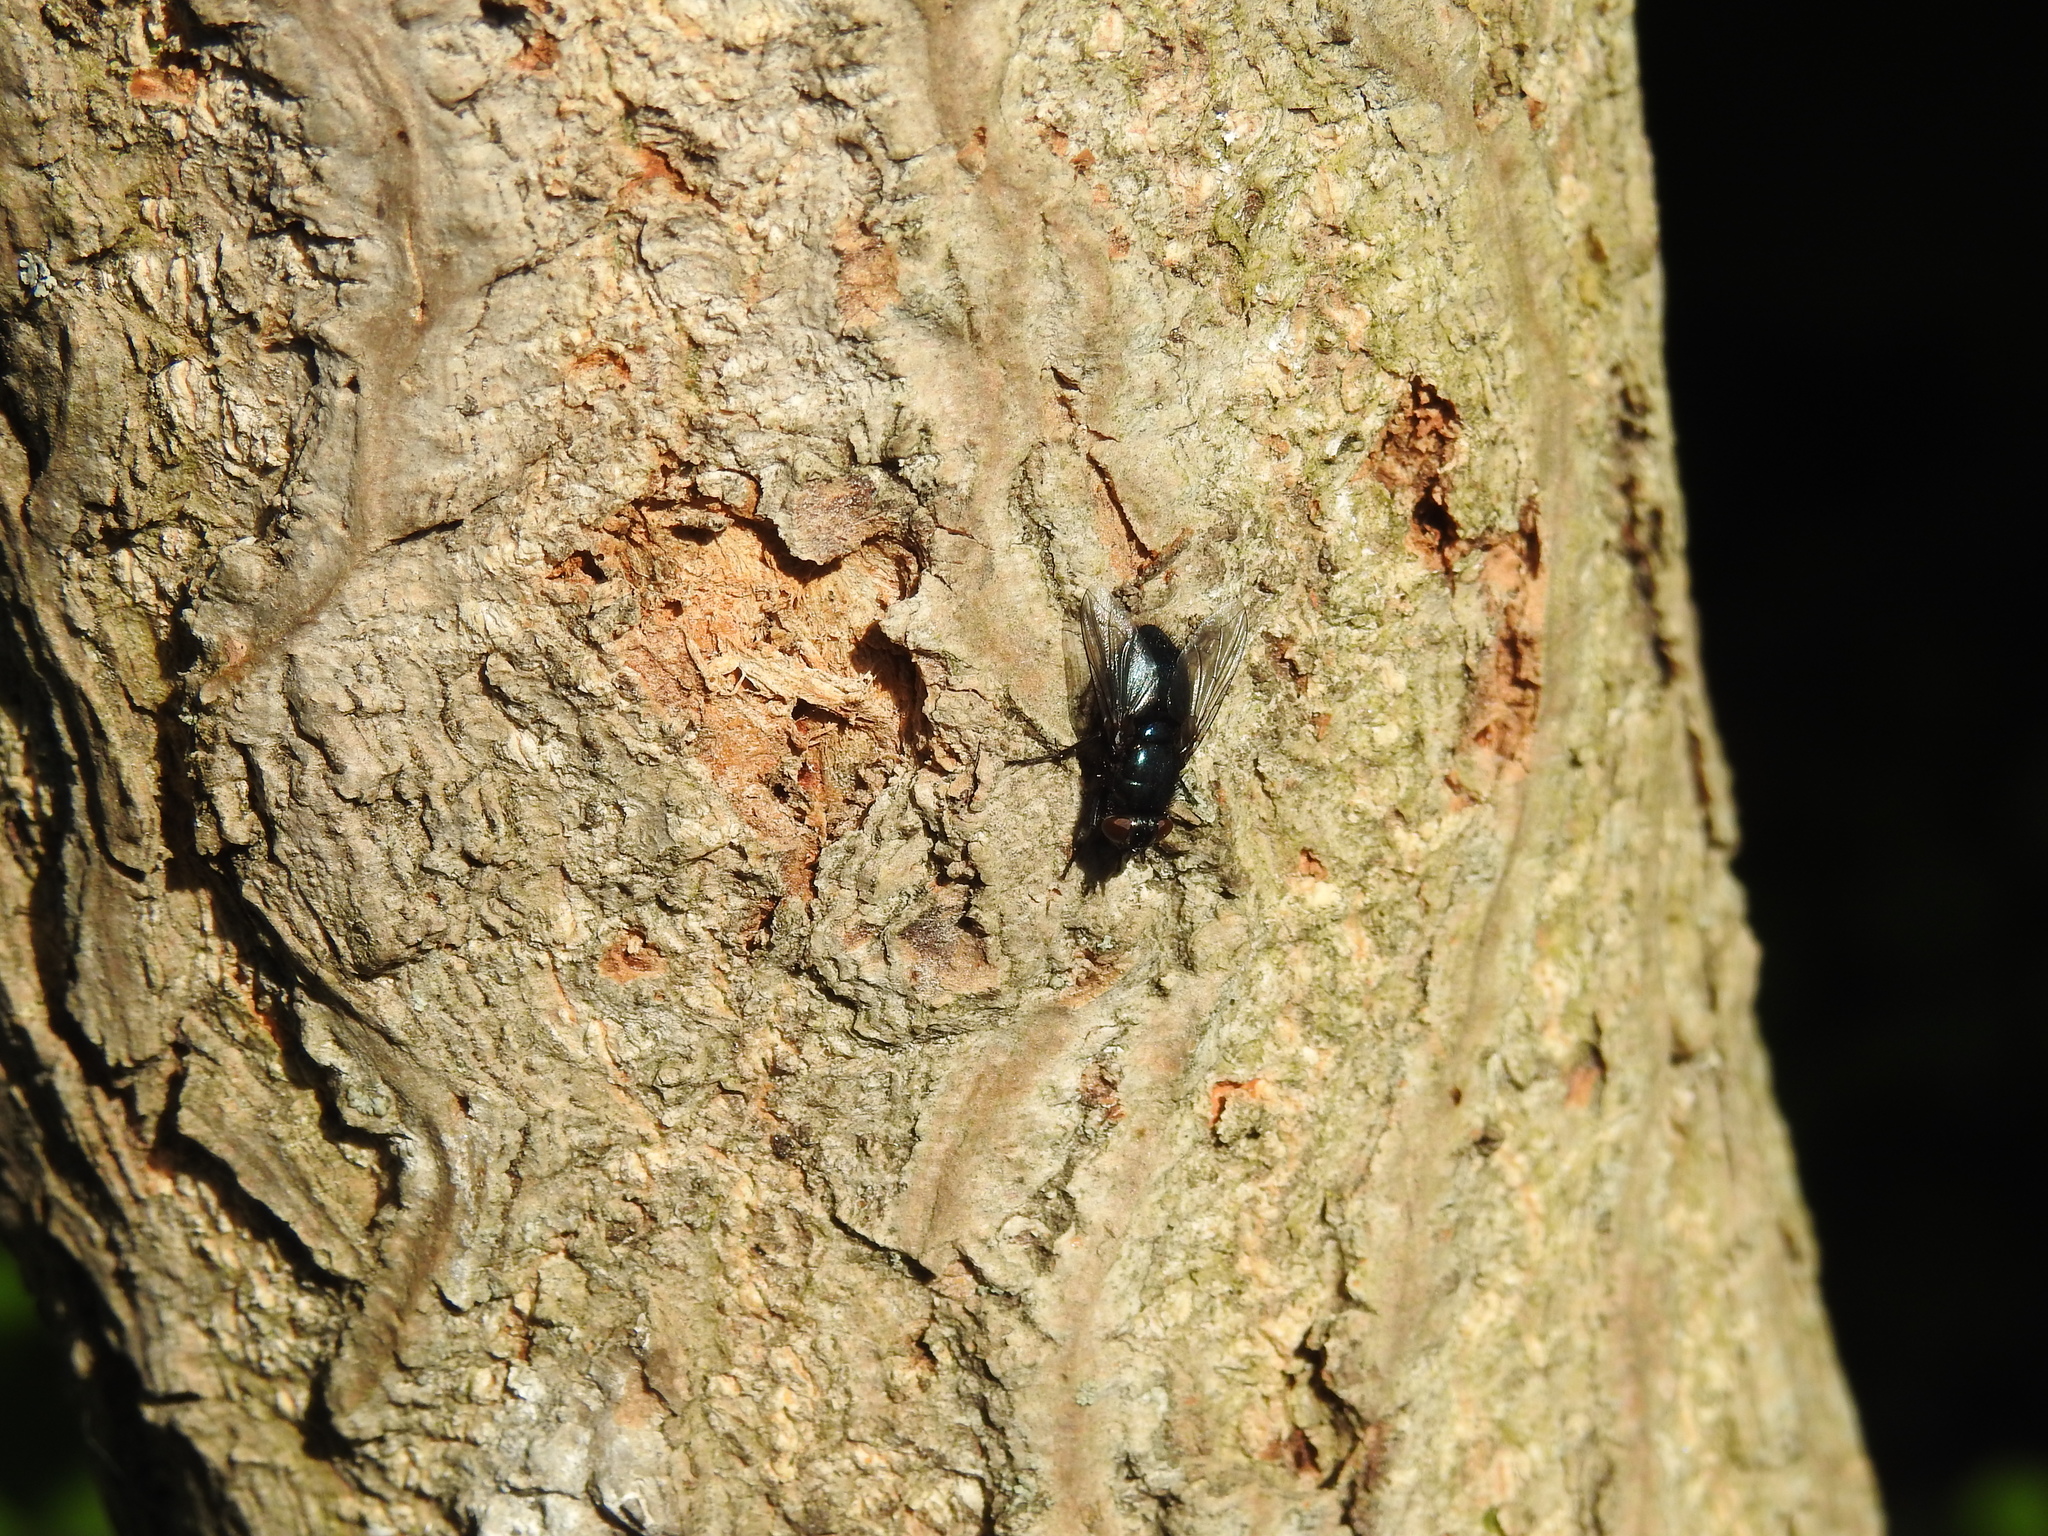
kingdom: Animalia
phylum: Arthropoda
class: Insecta
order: Diptera
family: Calliphoridae
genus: Protophormia
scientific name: Protophormia terraenovae
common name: Blackbottle
